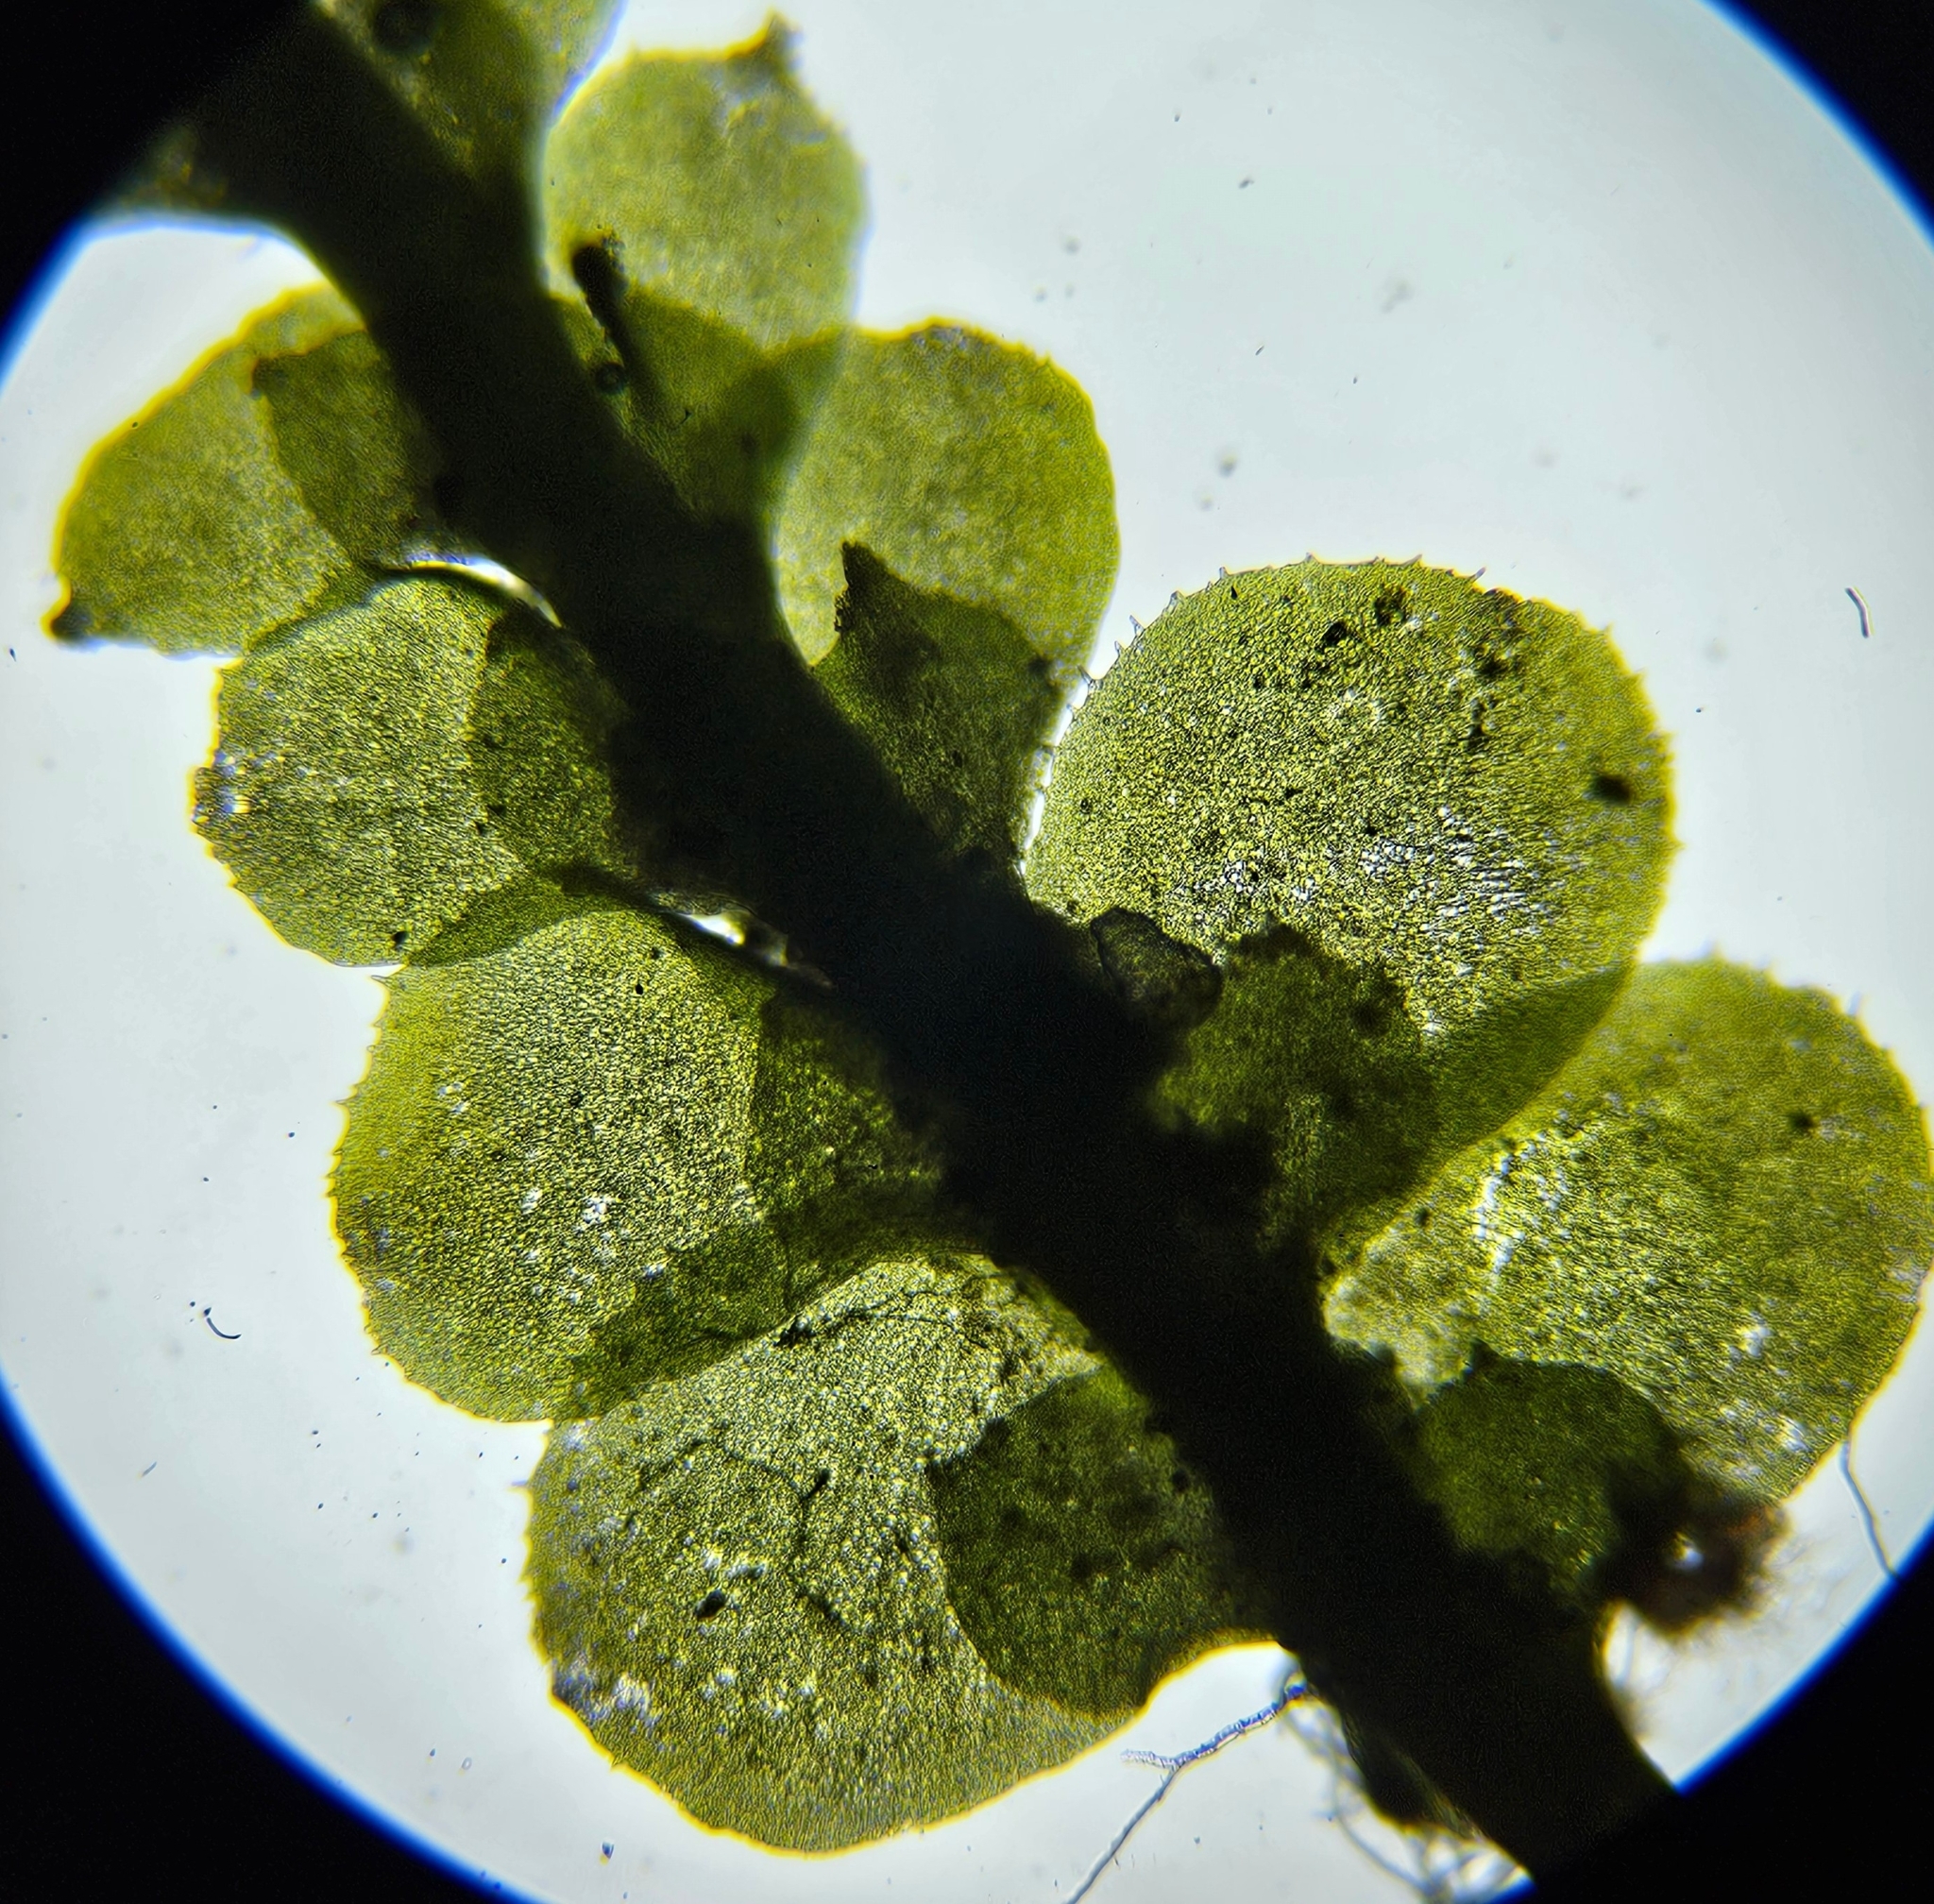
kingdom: Plantae
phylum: Marchantiophyta
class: Jungermanniopsida
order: Jungermanniales
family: Scapaniaceae
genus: Scapania
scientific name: Scapania nemorea
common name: Grove earwort
